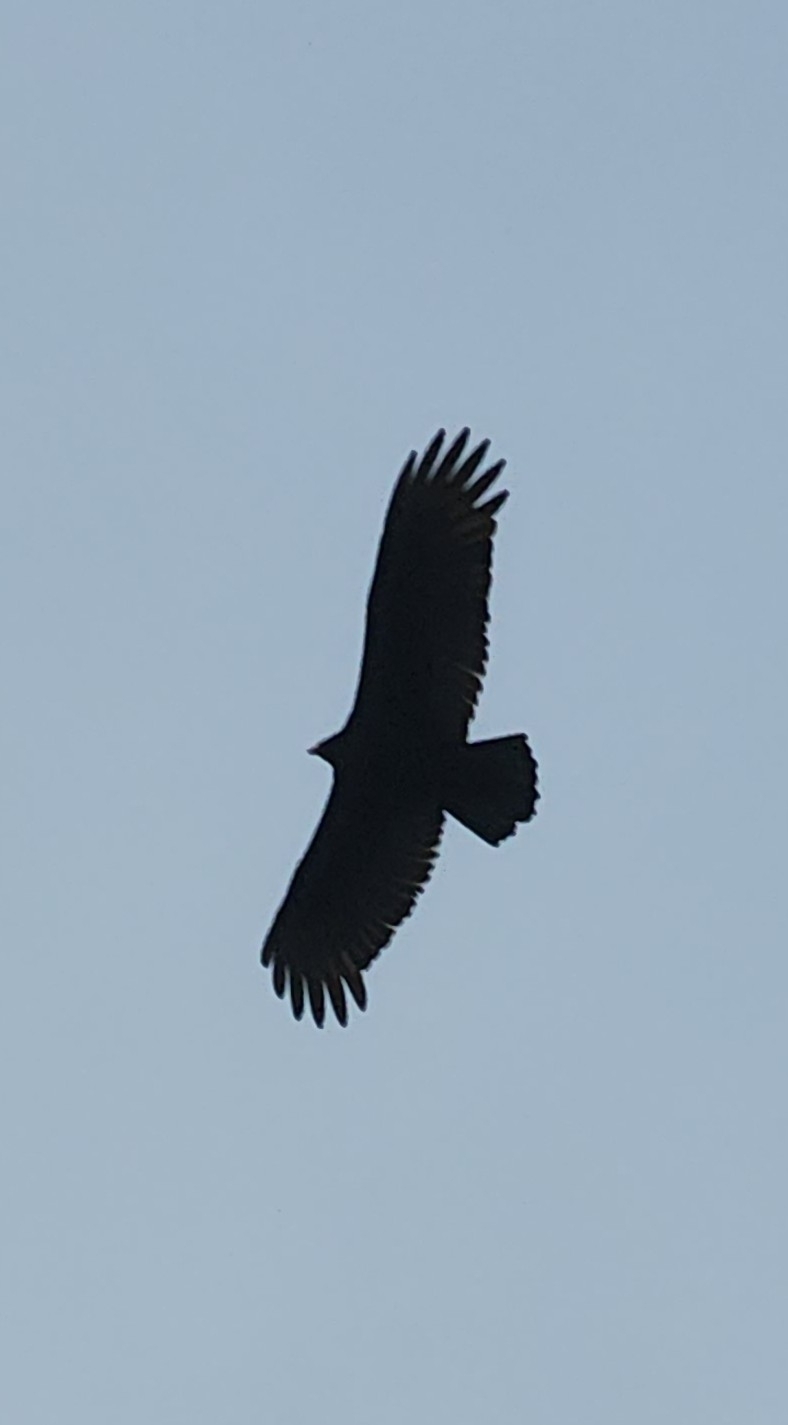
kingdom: Animalia
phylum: Chordata
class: Aves
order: Accipitriformes
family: Cathartidae
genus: Cathartes
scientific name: Cathartes aura
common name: Turkey vulture
